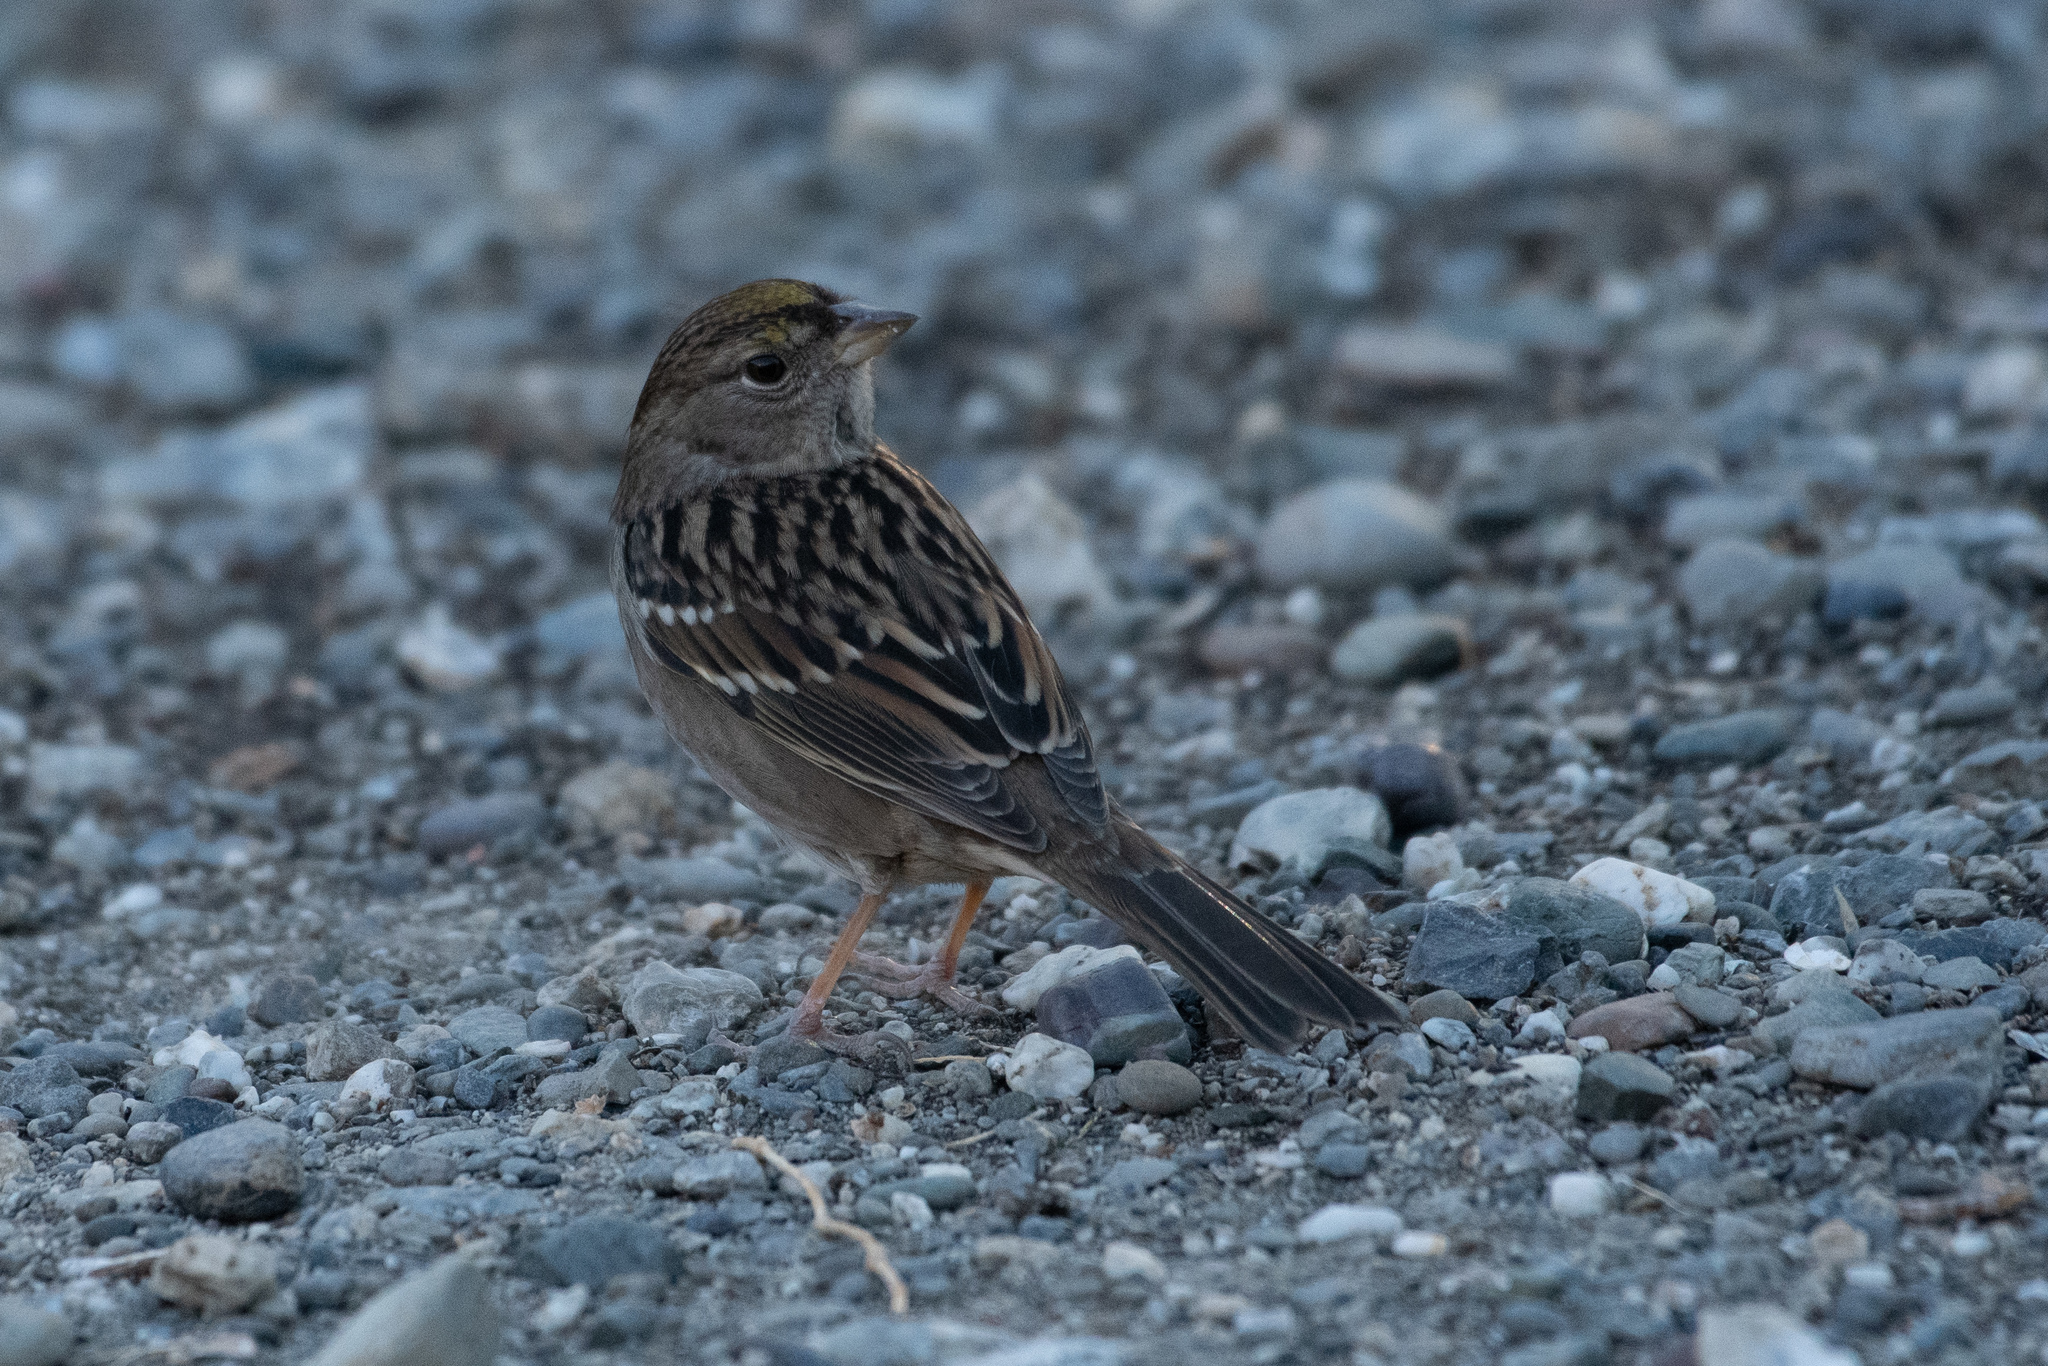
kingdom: Animalia
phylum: Chordata
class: Aves
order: Passeriformes
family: Passerellidae
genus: Zonotrichia
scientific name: Zonotrichia atricapilla
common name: Golden-crowned sparrow
